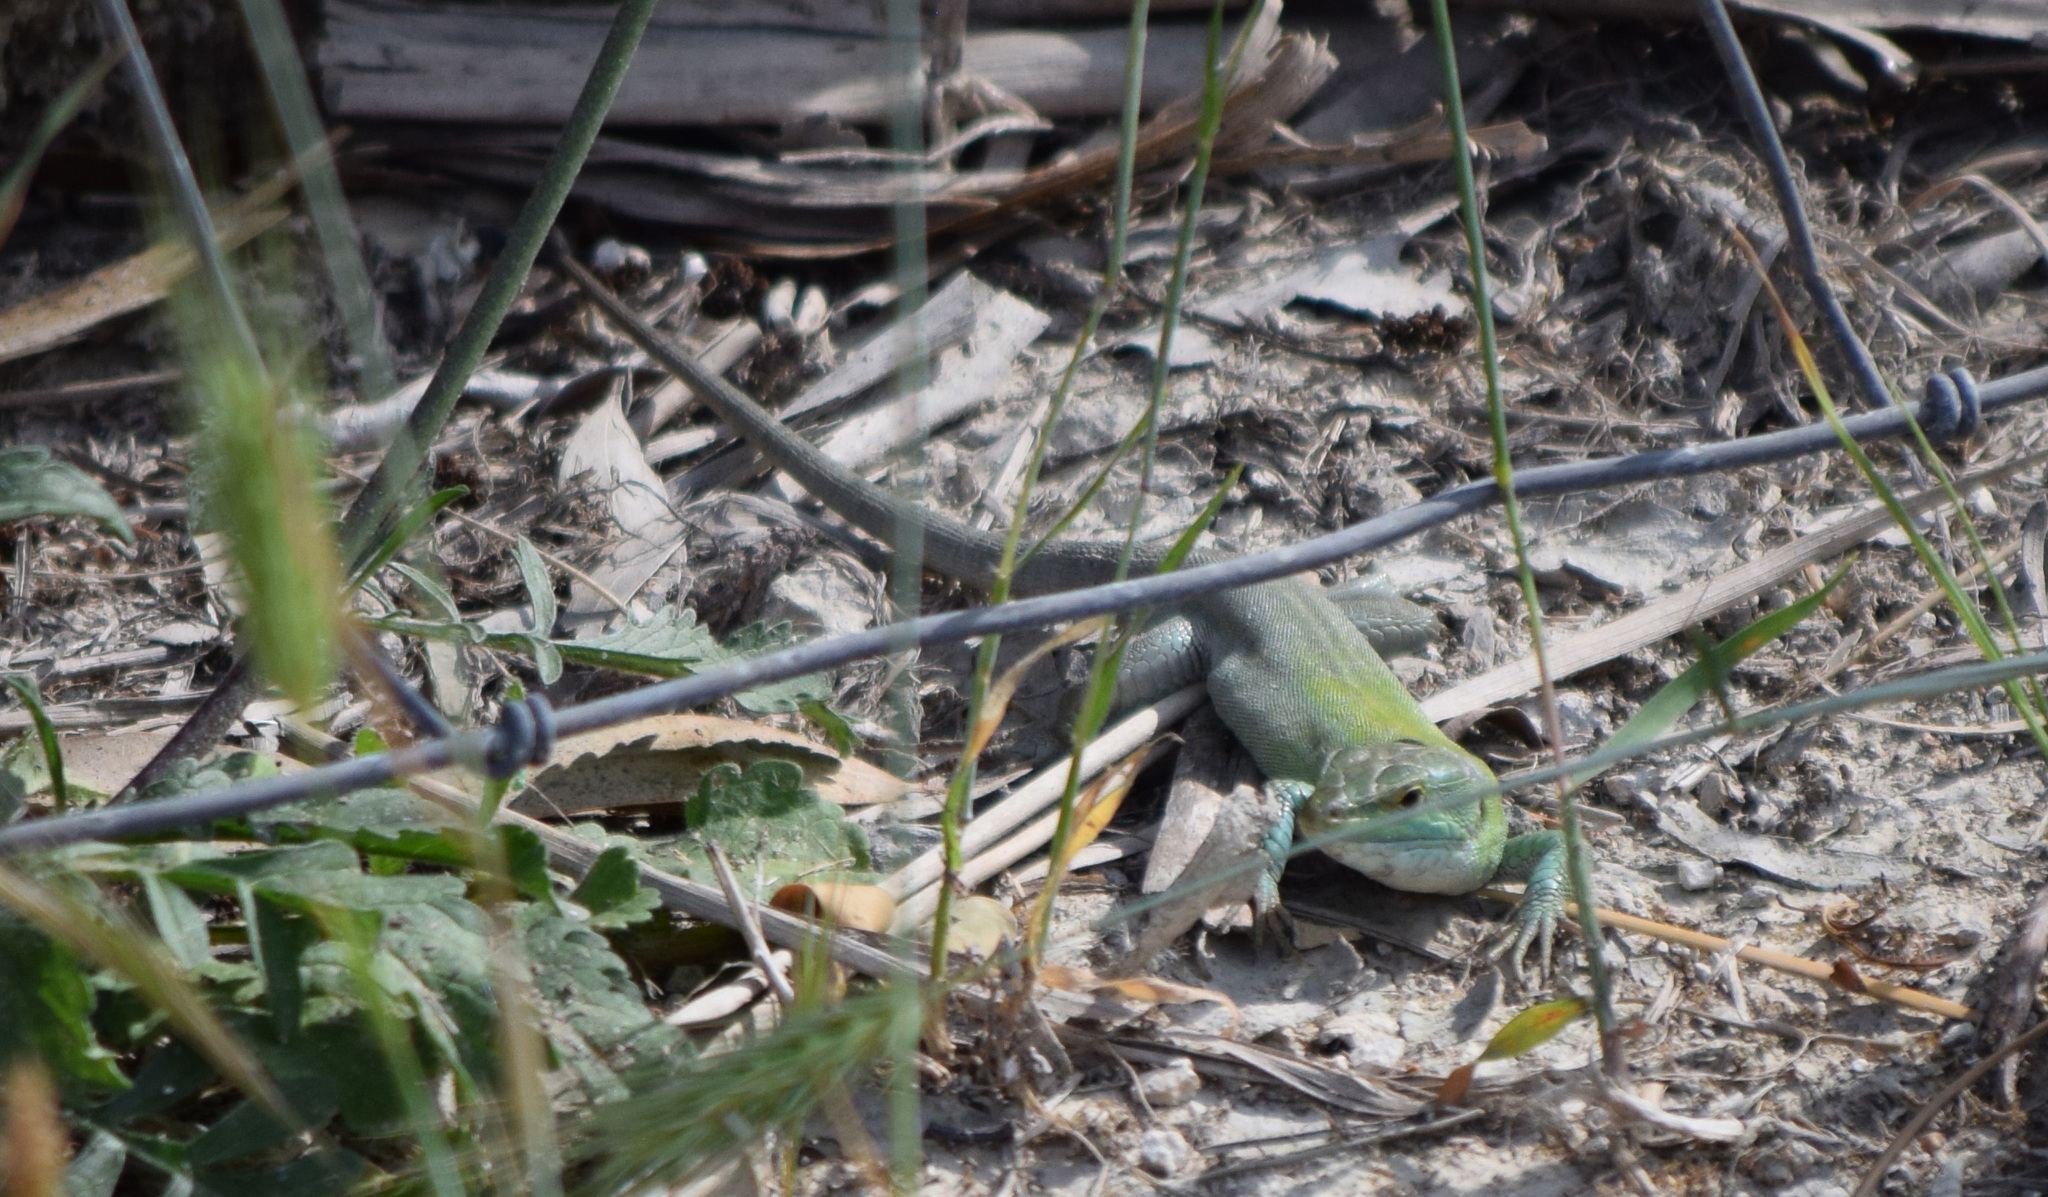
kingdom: Animalia
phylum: Chordata
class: Squamata
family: Lacertidae
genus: Podarcis
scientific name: Podarcis siculus
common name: Italian wall lizard
